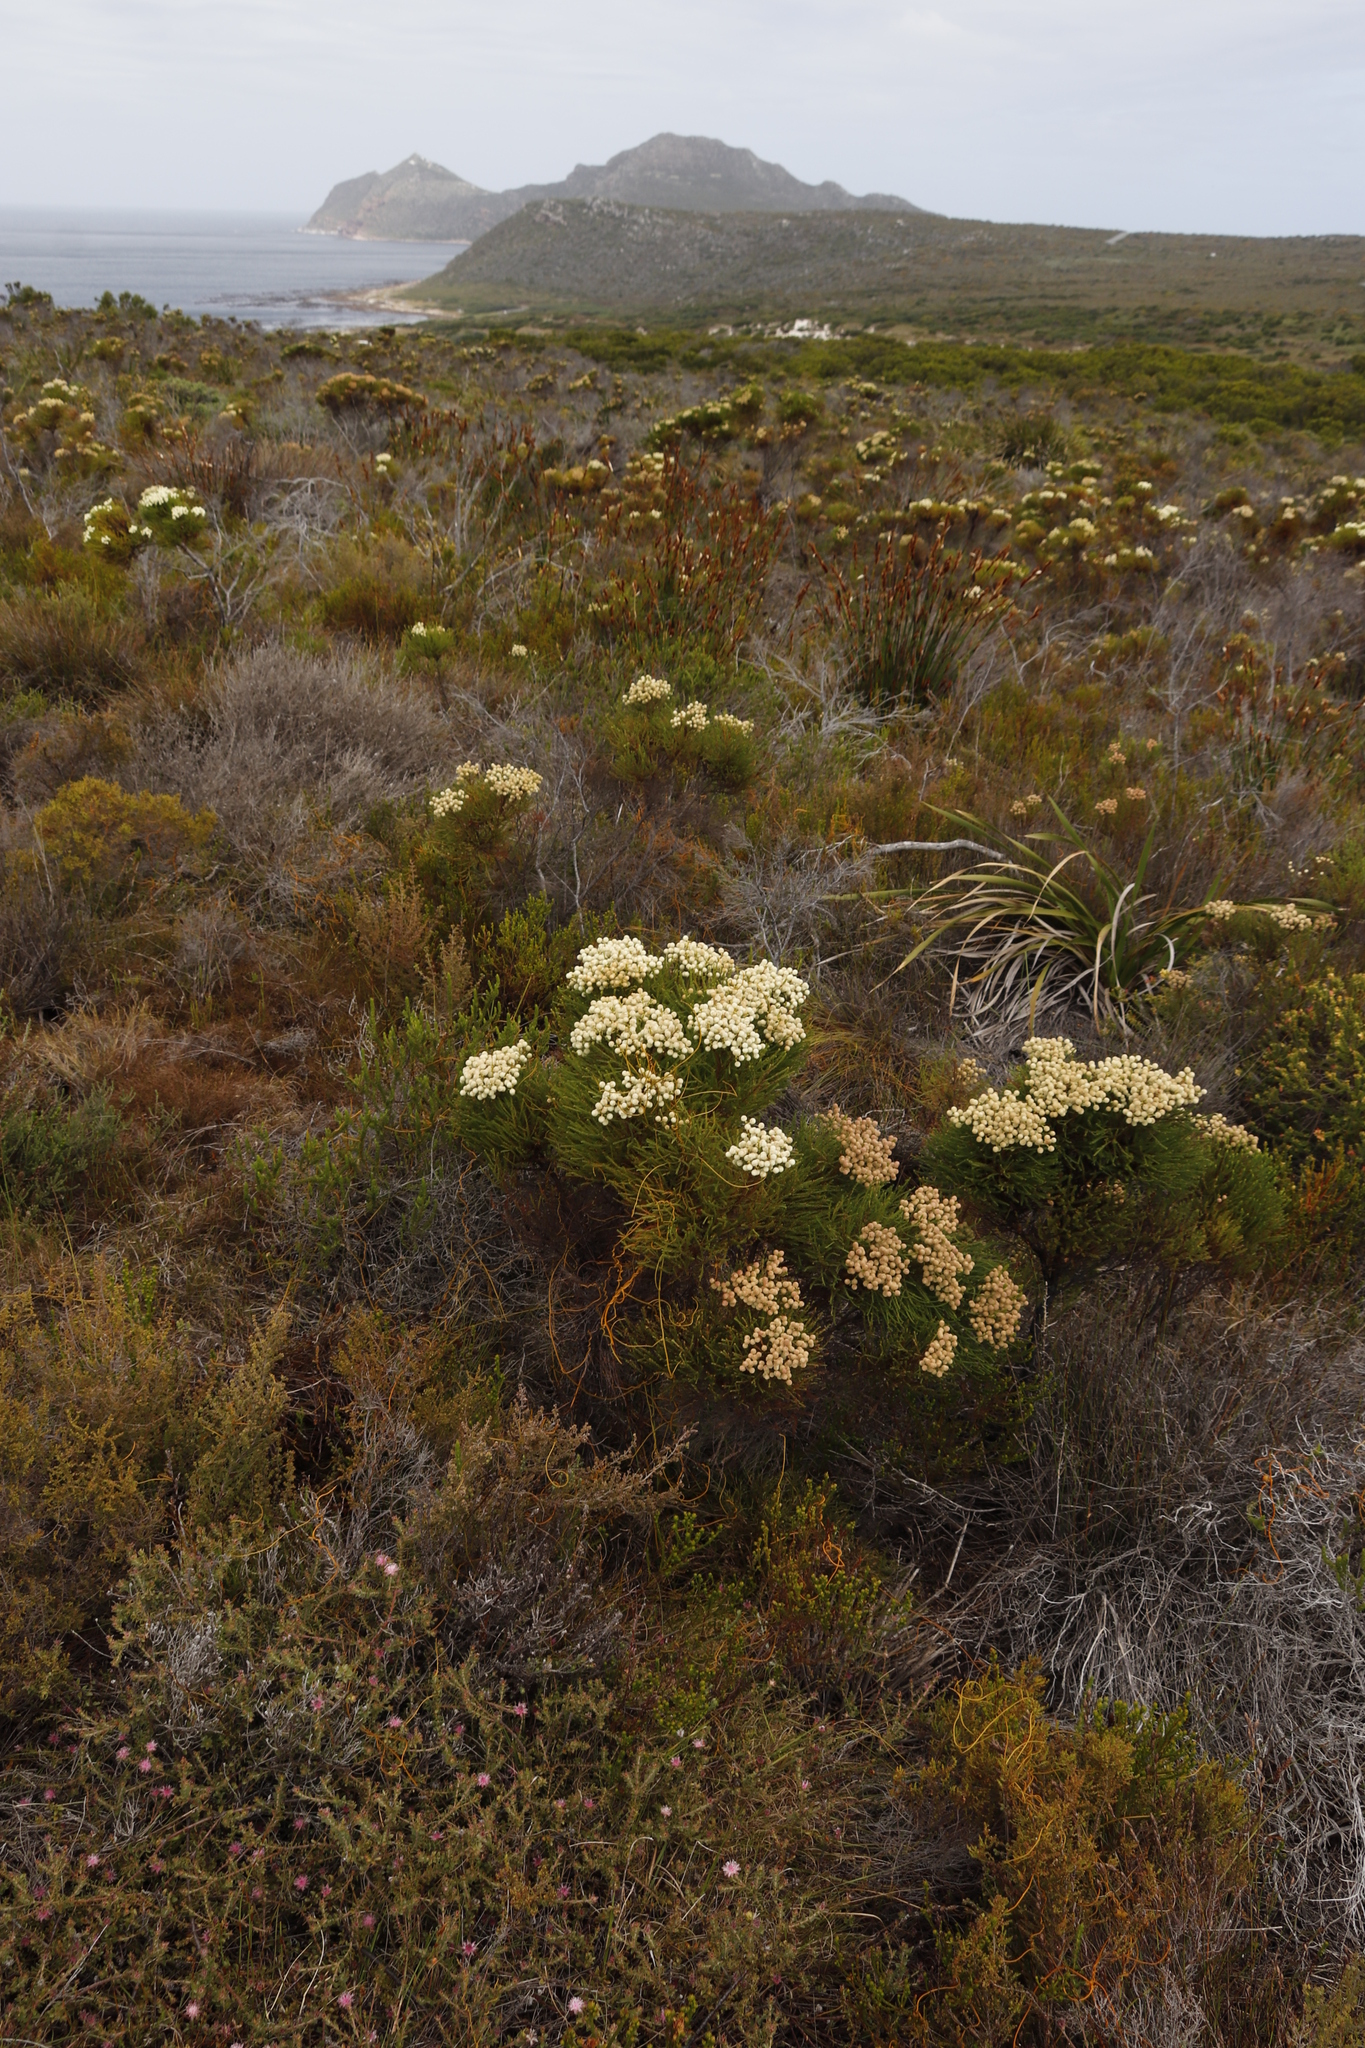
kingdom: Plantae
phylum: Tracheophyta
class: Magnoliopsida
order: Bruniales
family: Bruniaceae
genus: Berzelia
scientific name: Berzelia abrotanoides
